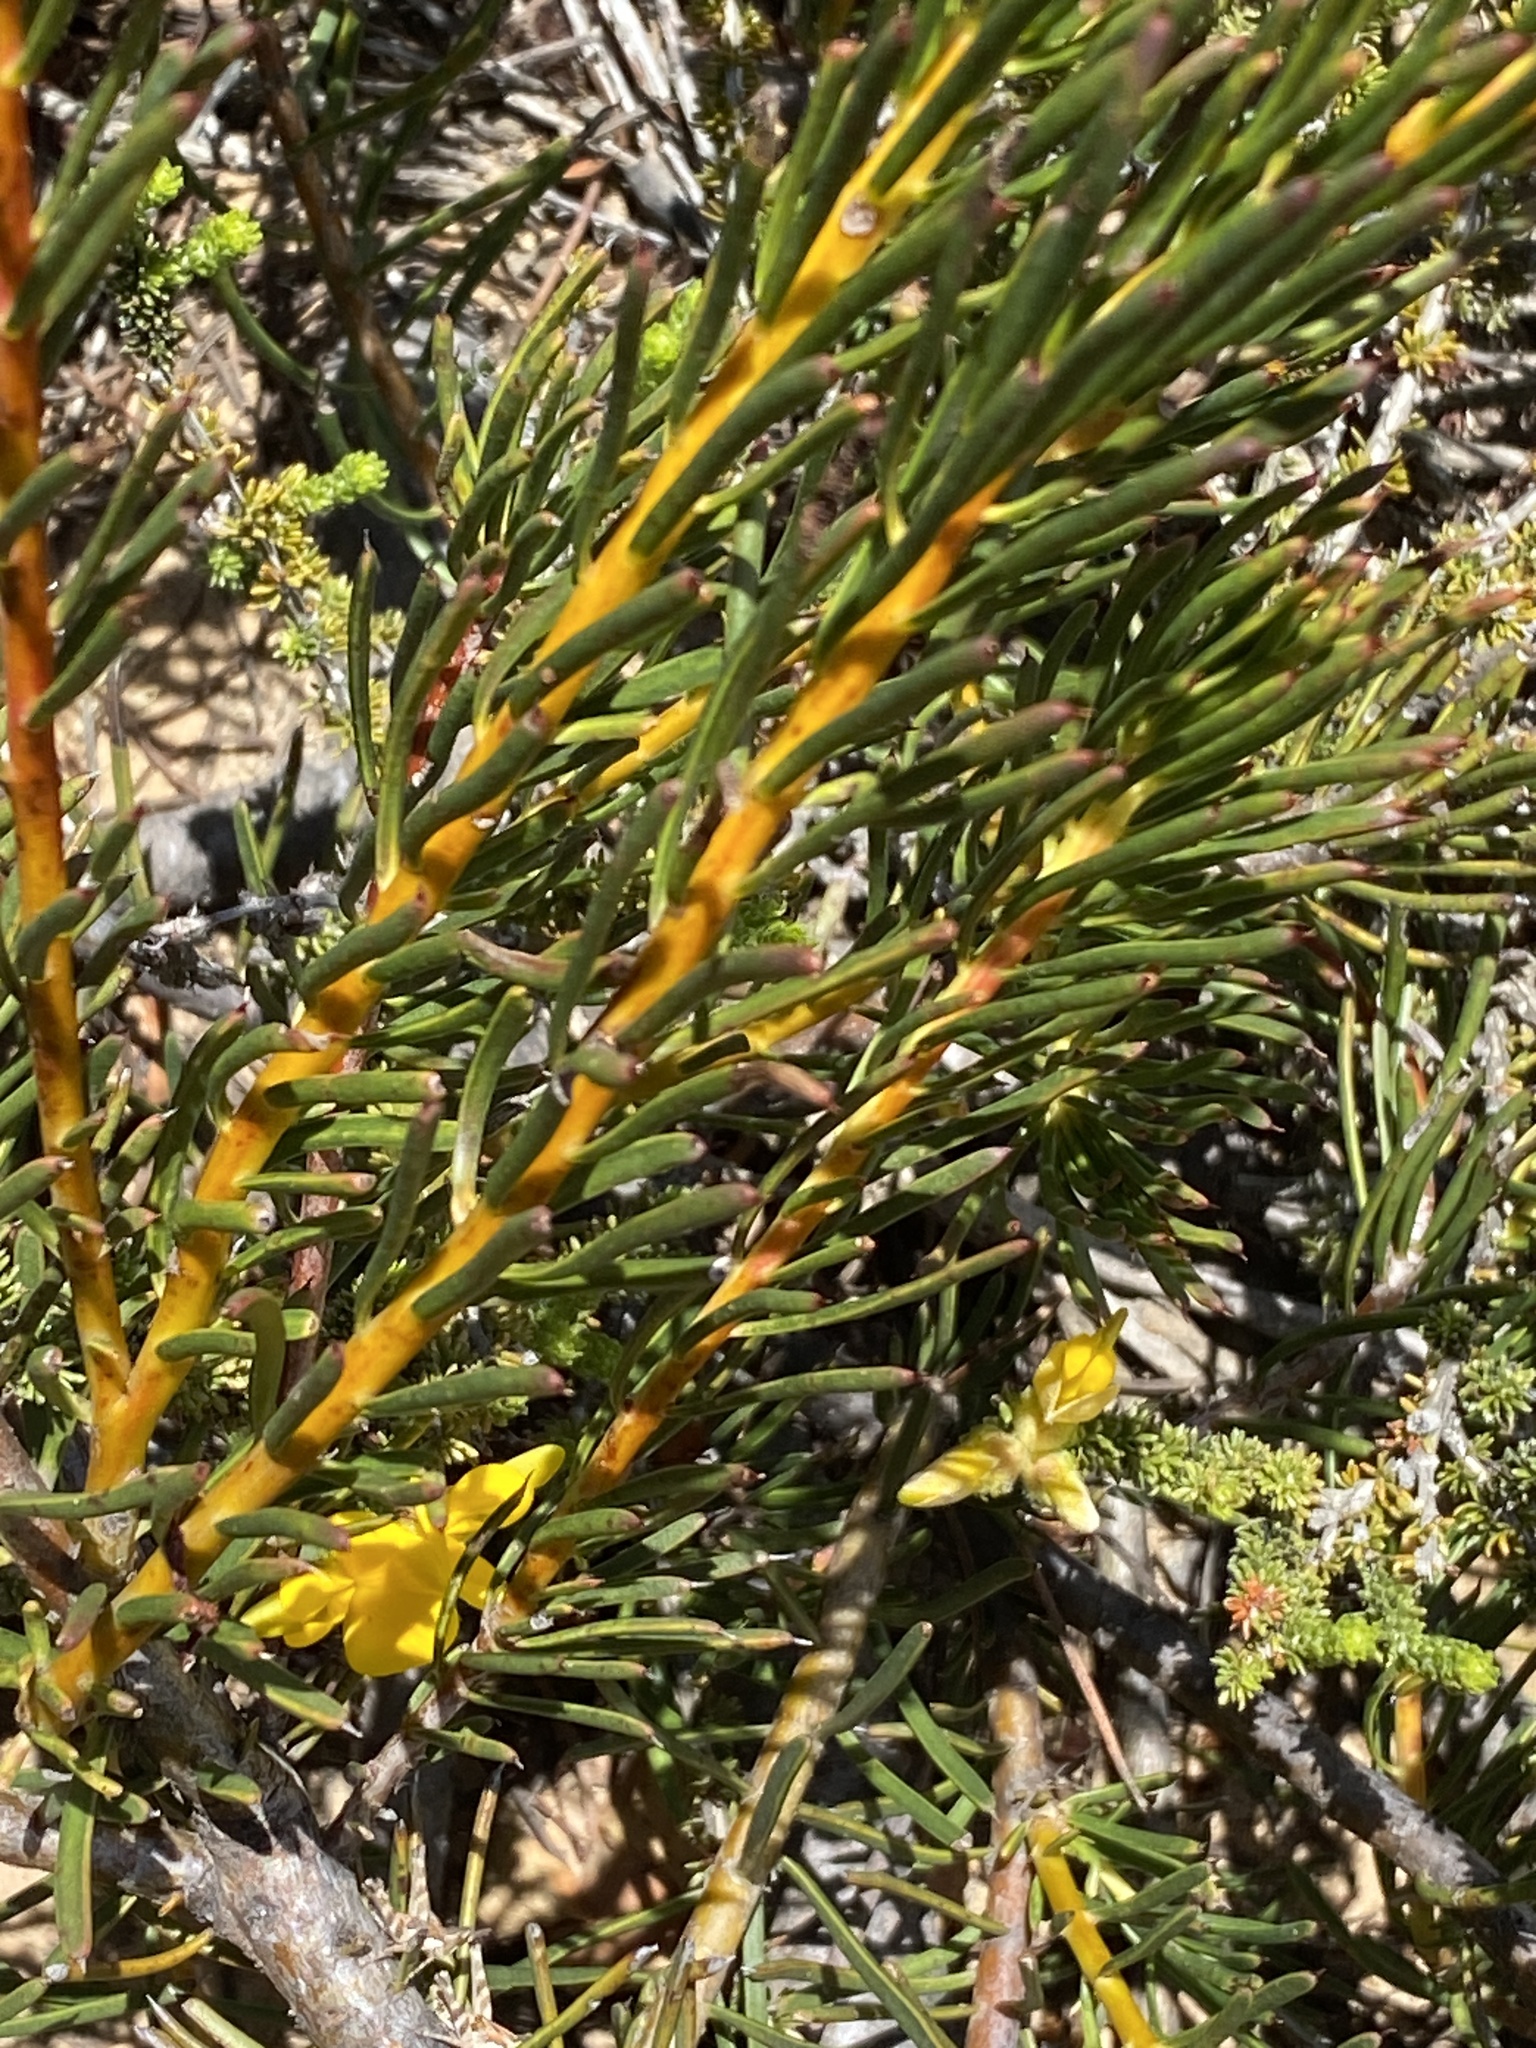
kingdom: Plantae
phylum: Tracheophyta
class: Magnoliopsida
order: Proteales
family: Proteaceae
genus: Protea
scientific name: Protea witzenbergiana
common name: Swan sugarbush
